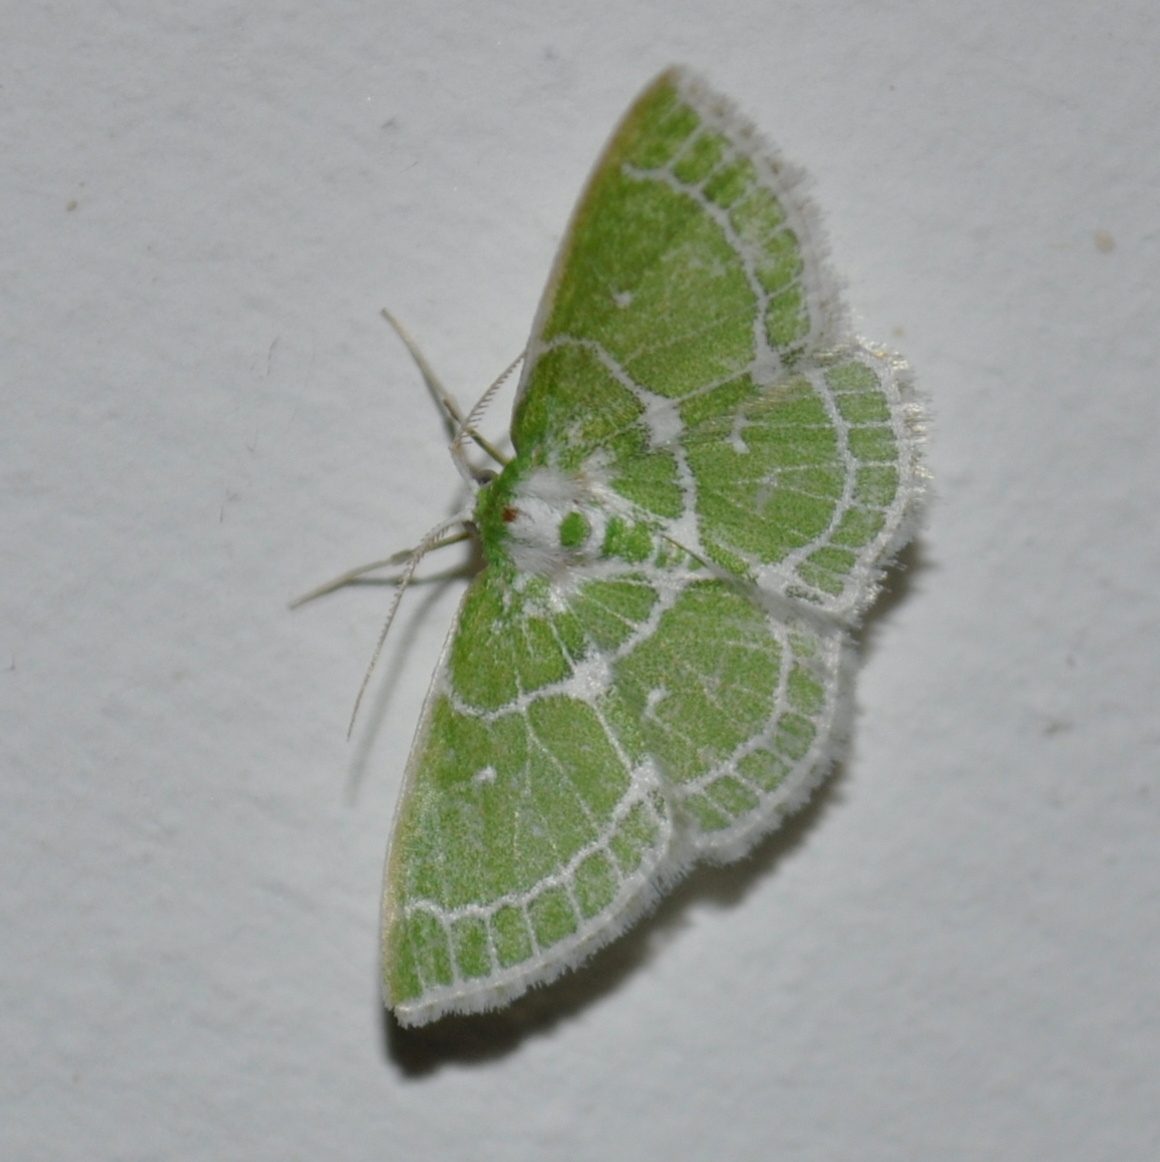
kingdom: Animalia
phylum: Arthropoda
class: Insecta
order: Lepidoptera
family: Geometridae
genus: Synchlora
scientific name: Synchlora fringillata
